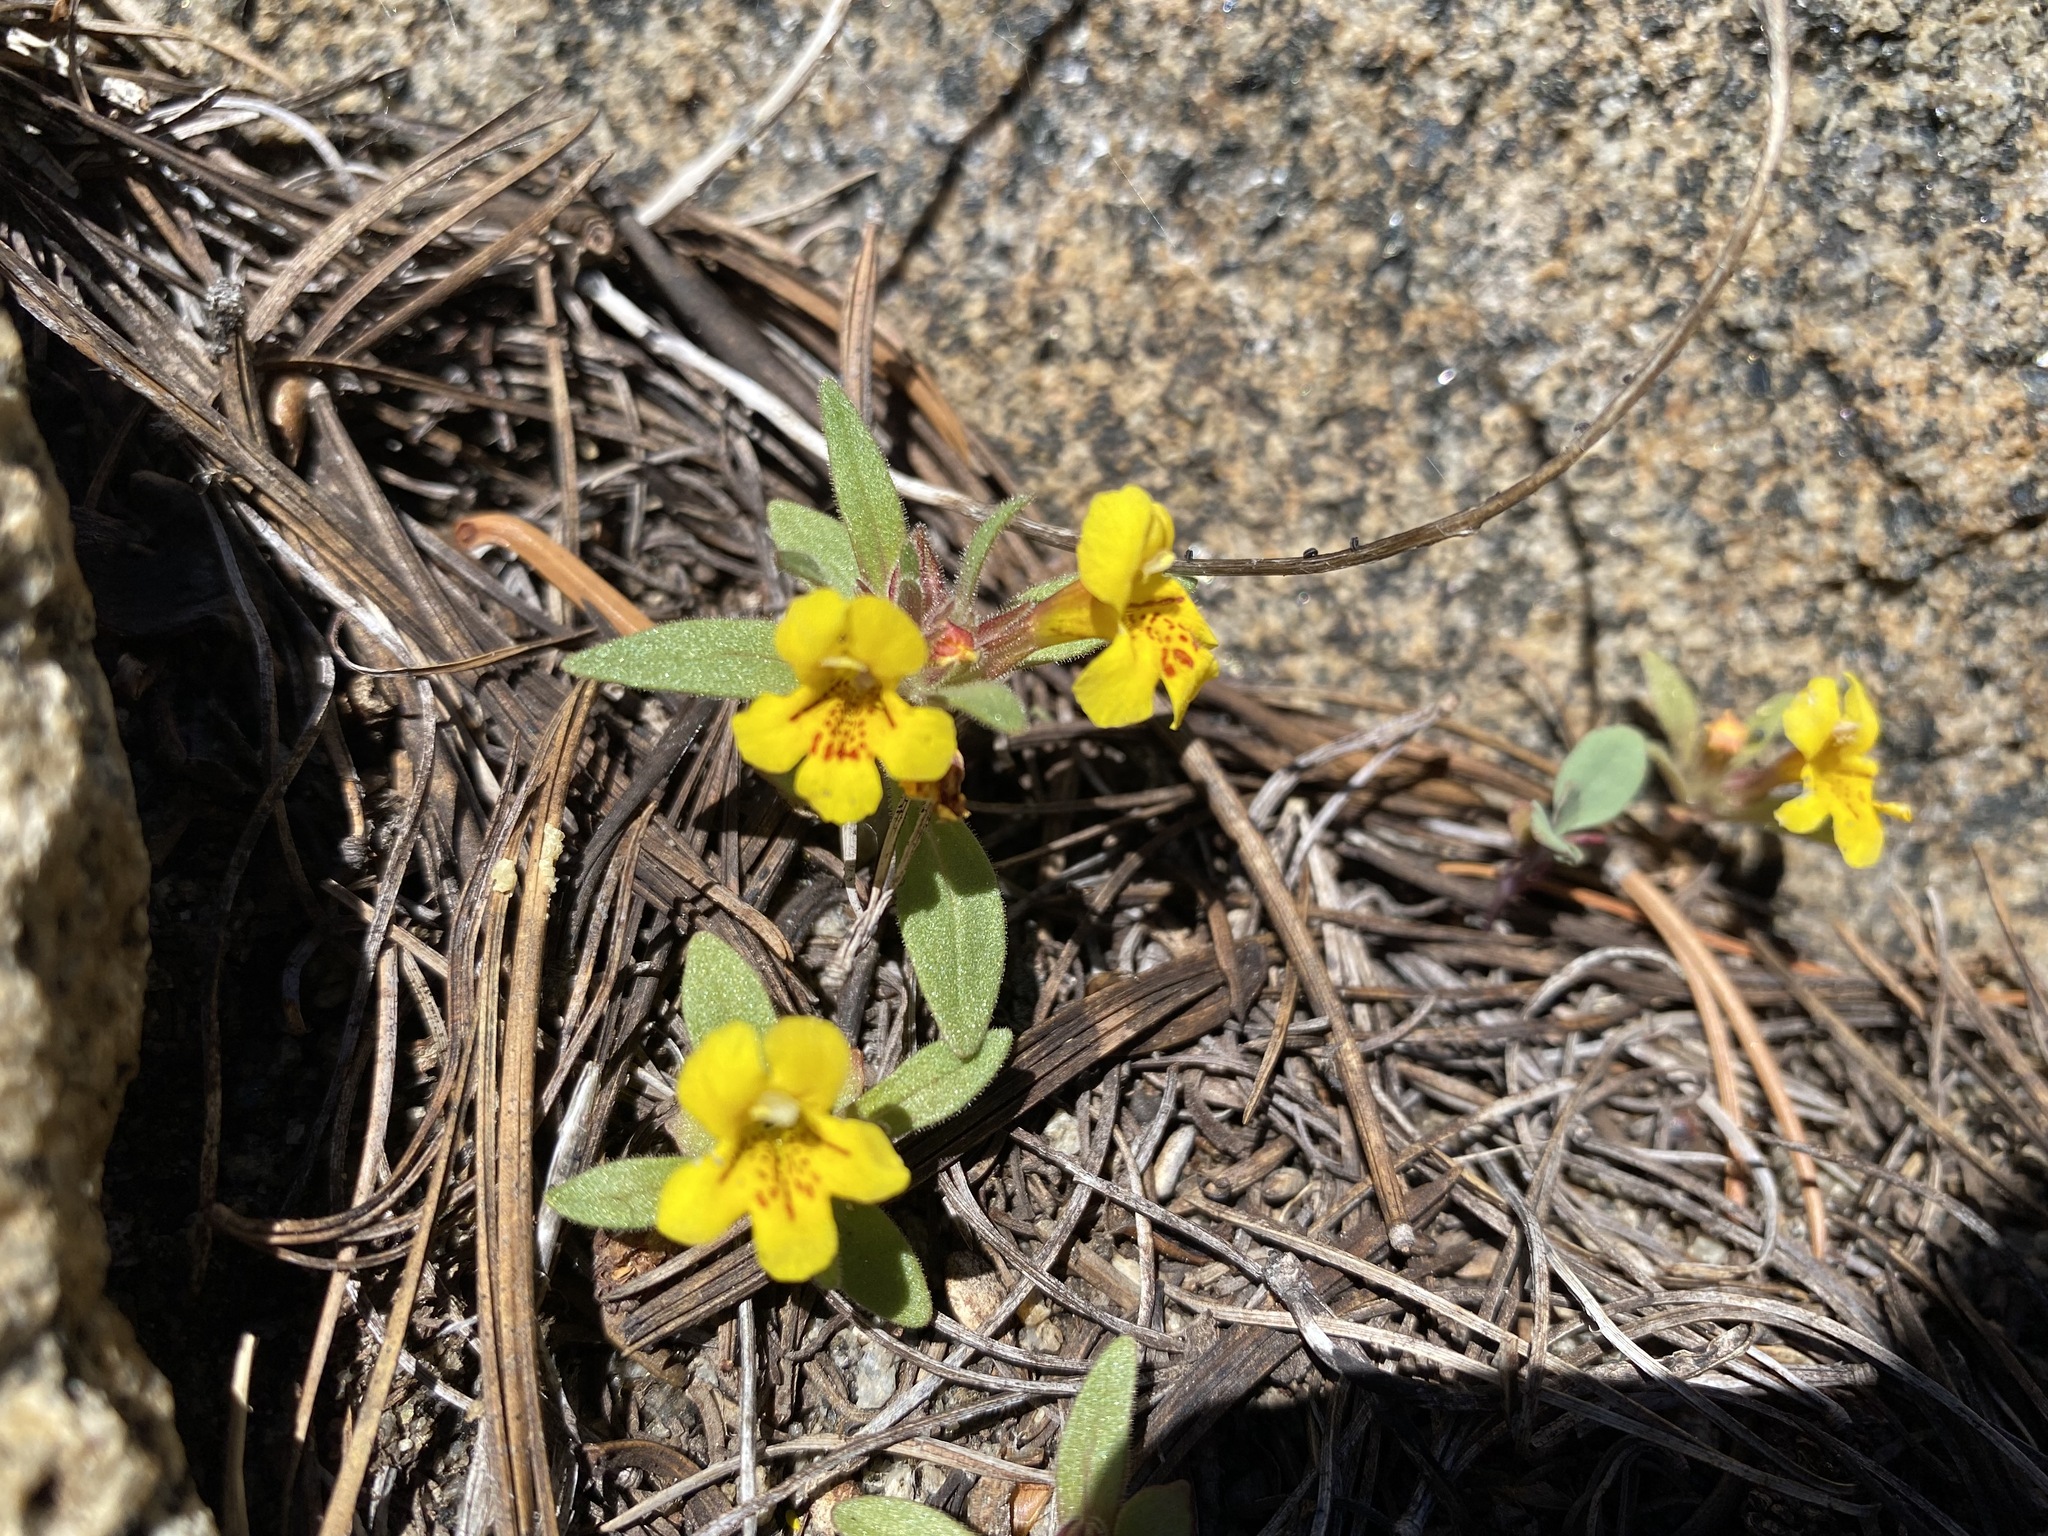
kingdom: Plantae
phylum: Tracheophyta
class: Magnoliopsida
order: Lamiales
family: Phrymaceae
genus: Diplacus
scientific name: Diplacus mephiticus
